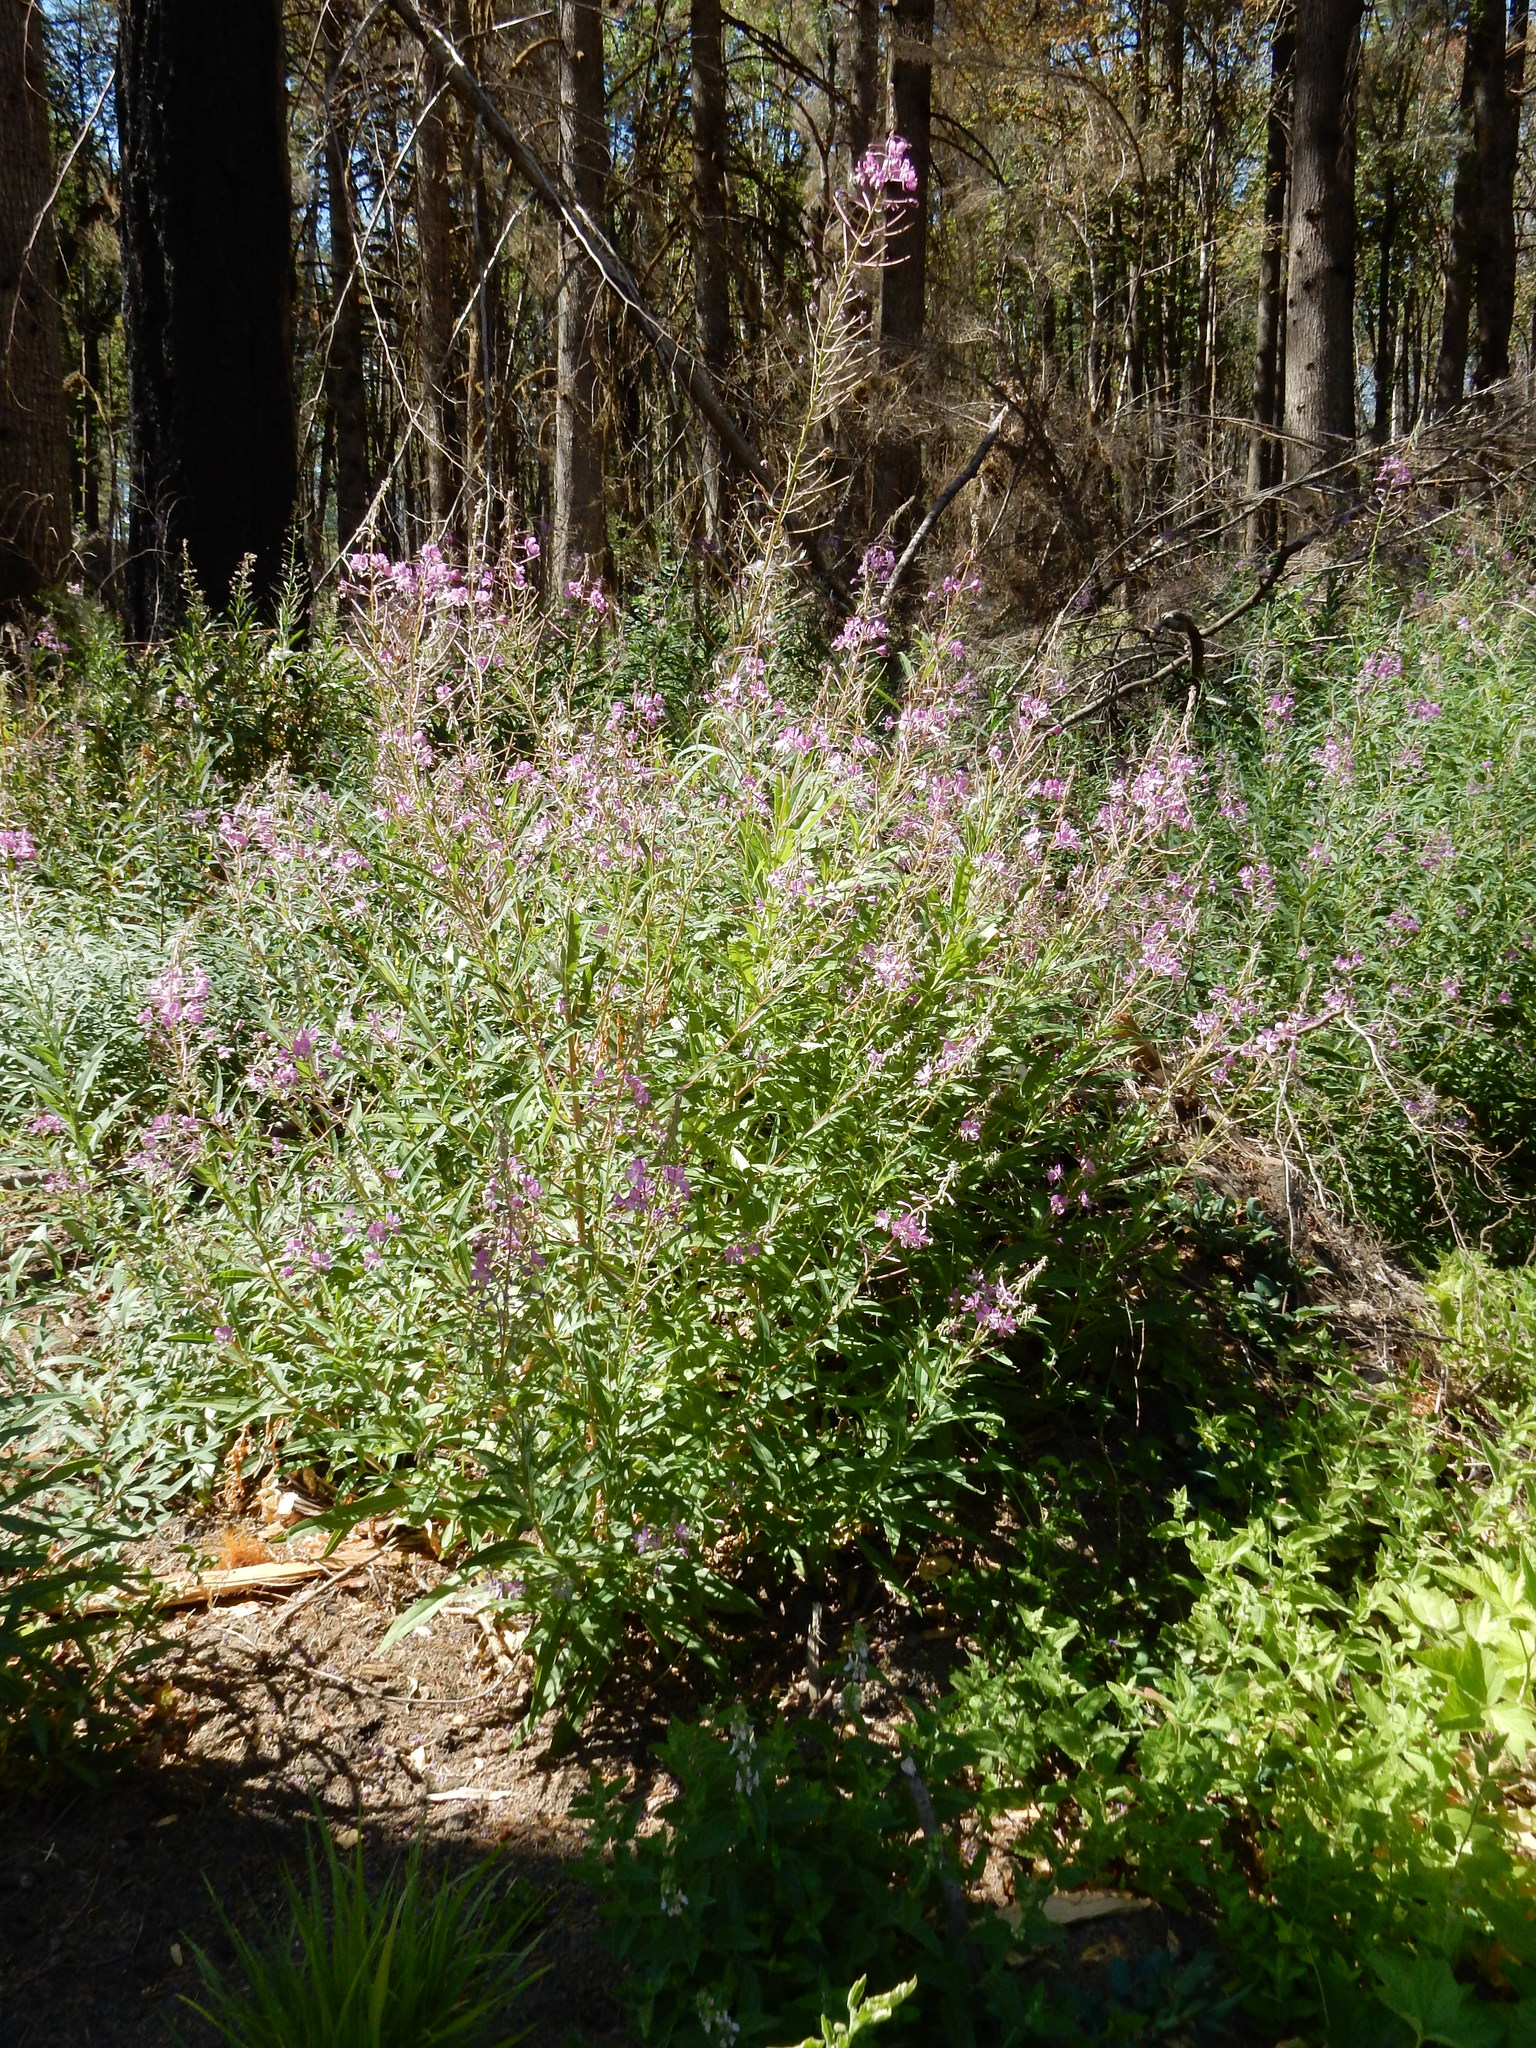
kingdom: Plantae
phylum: Tracheophyta
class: Magnoliopsida
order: Myrtales
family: Onagraceae
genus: Chamaenerion
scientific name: Chamaenerion angustifolium
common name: Fireweed
